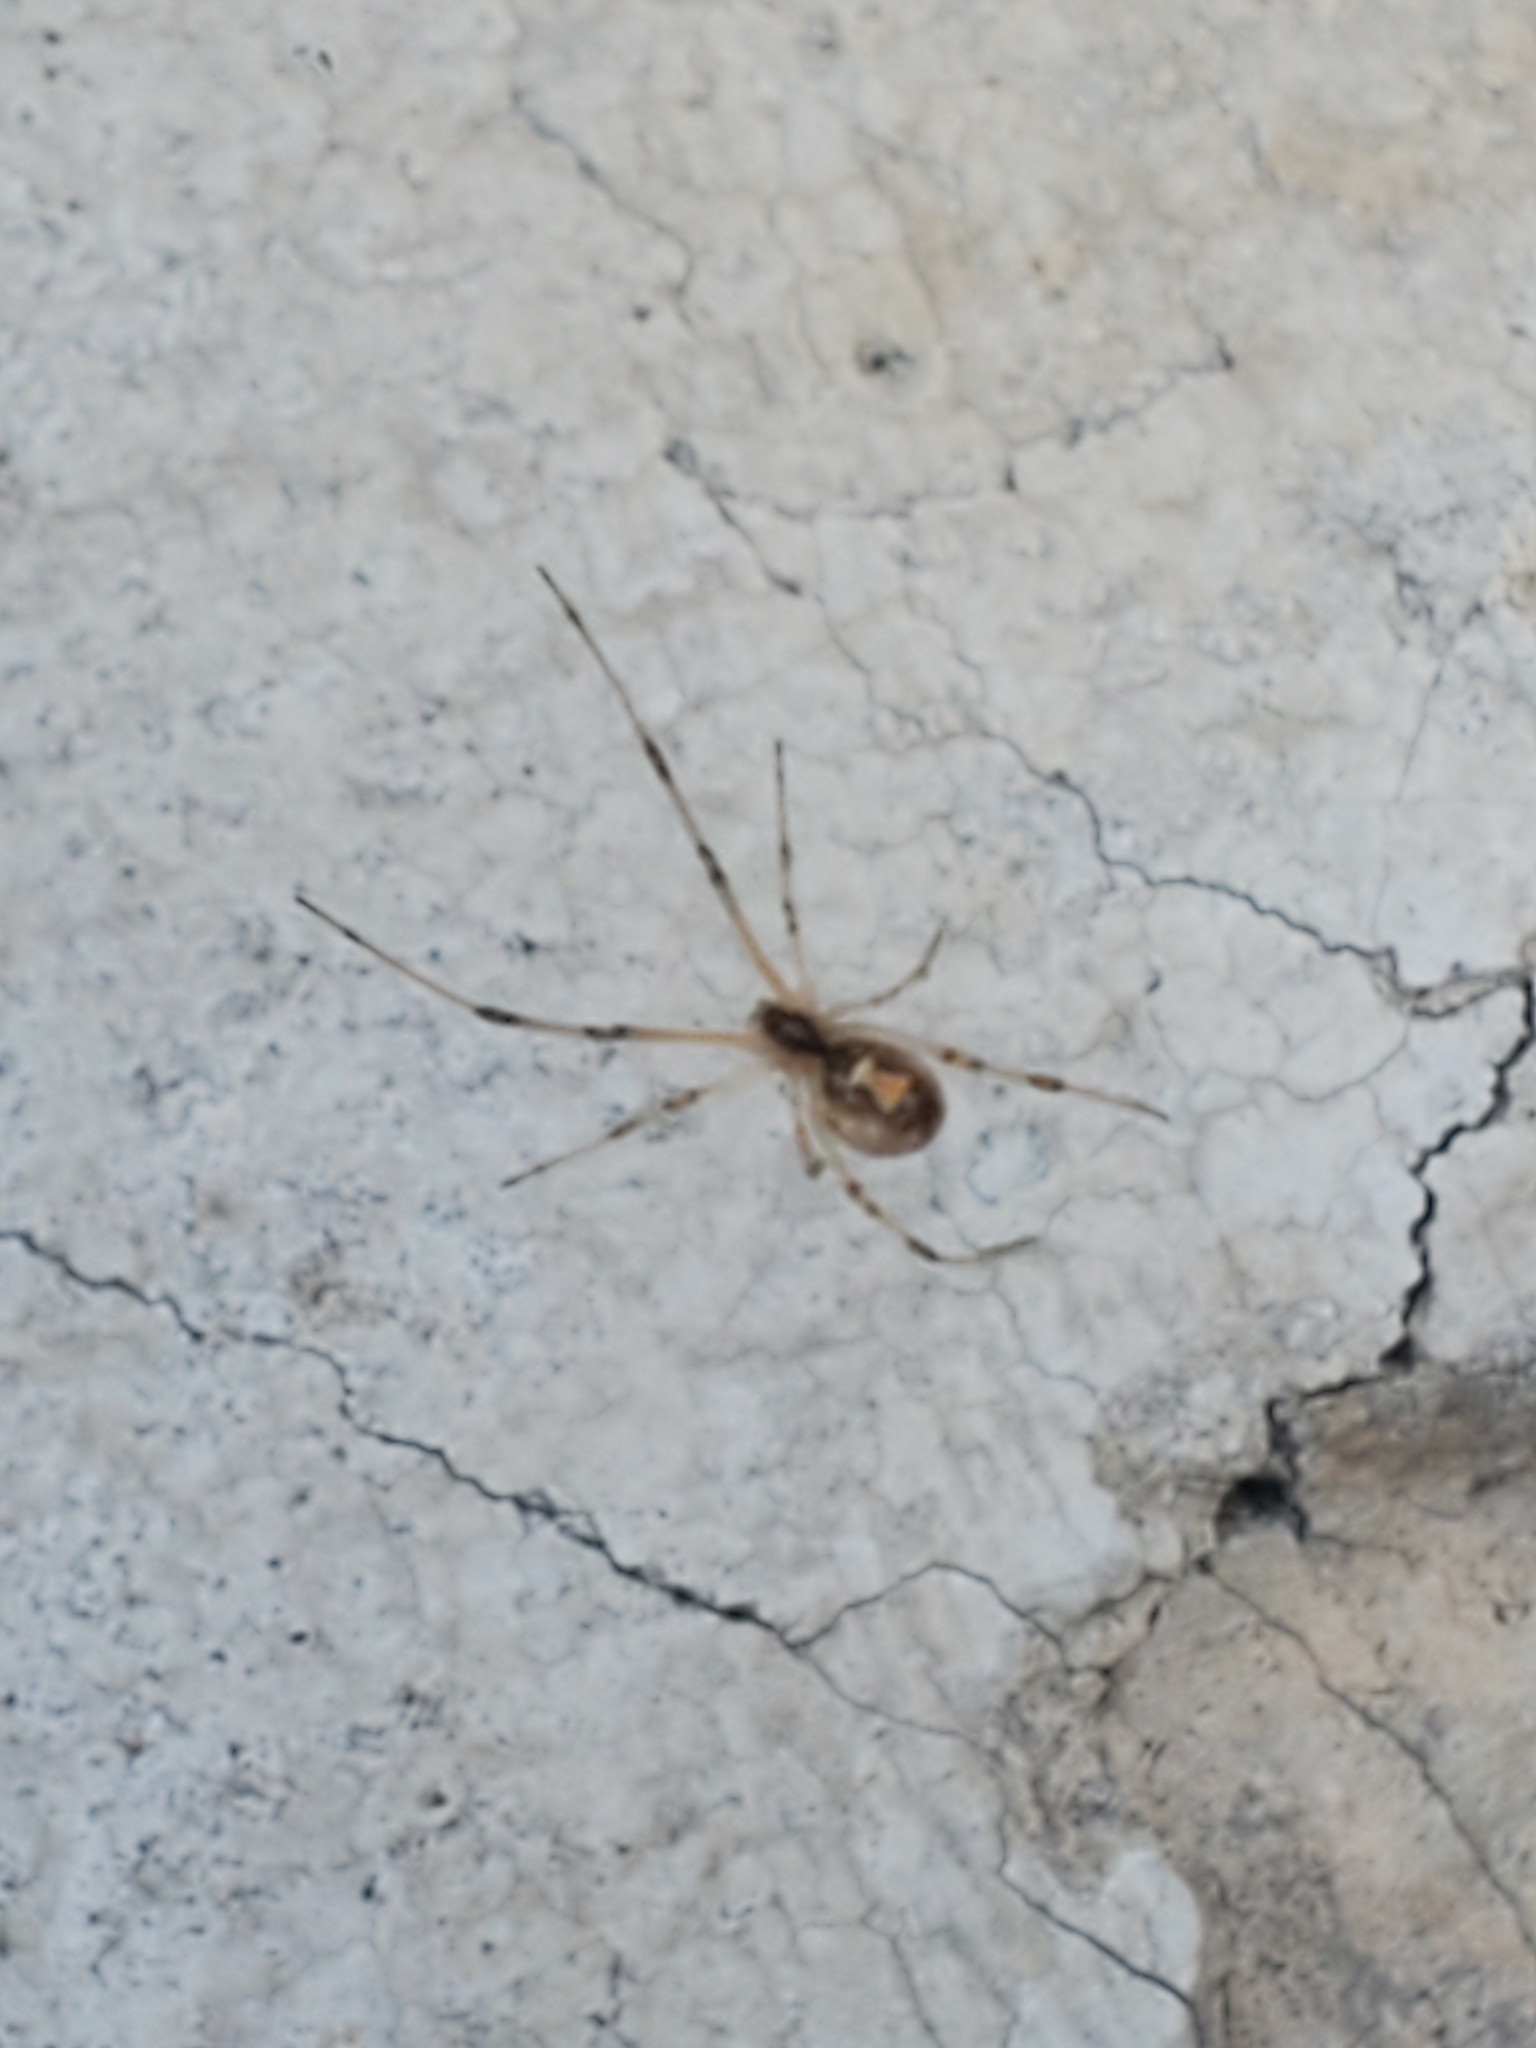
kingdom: Animalia
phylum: Arthropoda
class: Arachnida
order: Araneae
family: Theridiidae
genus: Latrodectus
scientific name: Latrodectus geometricus
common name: Brown widow spider
